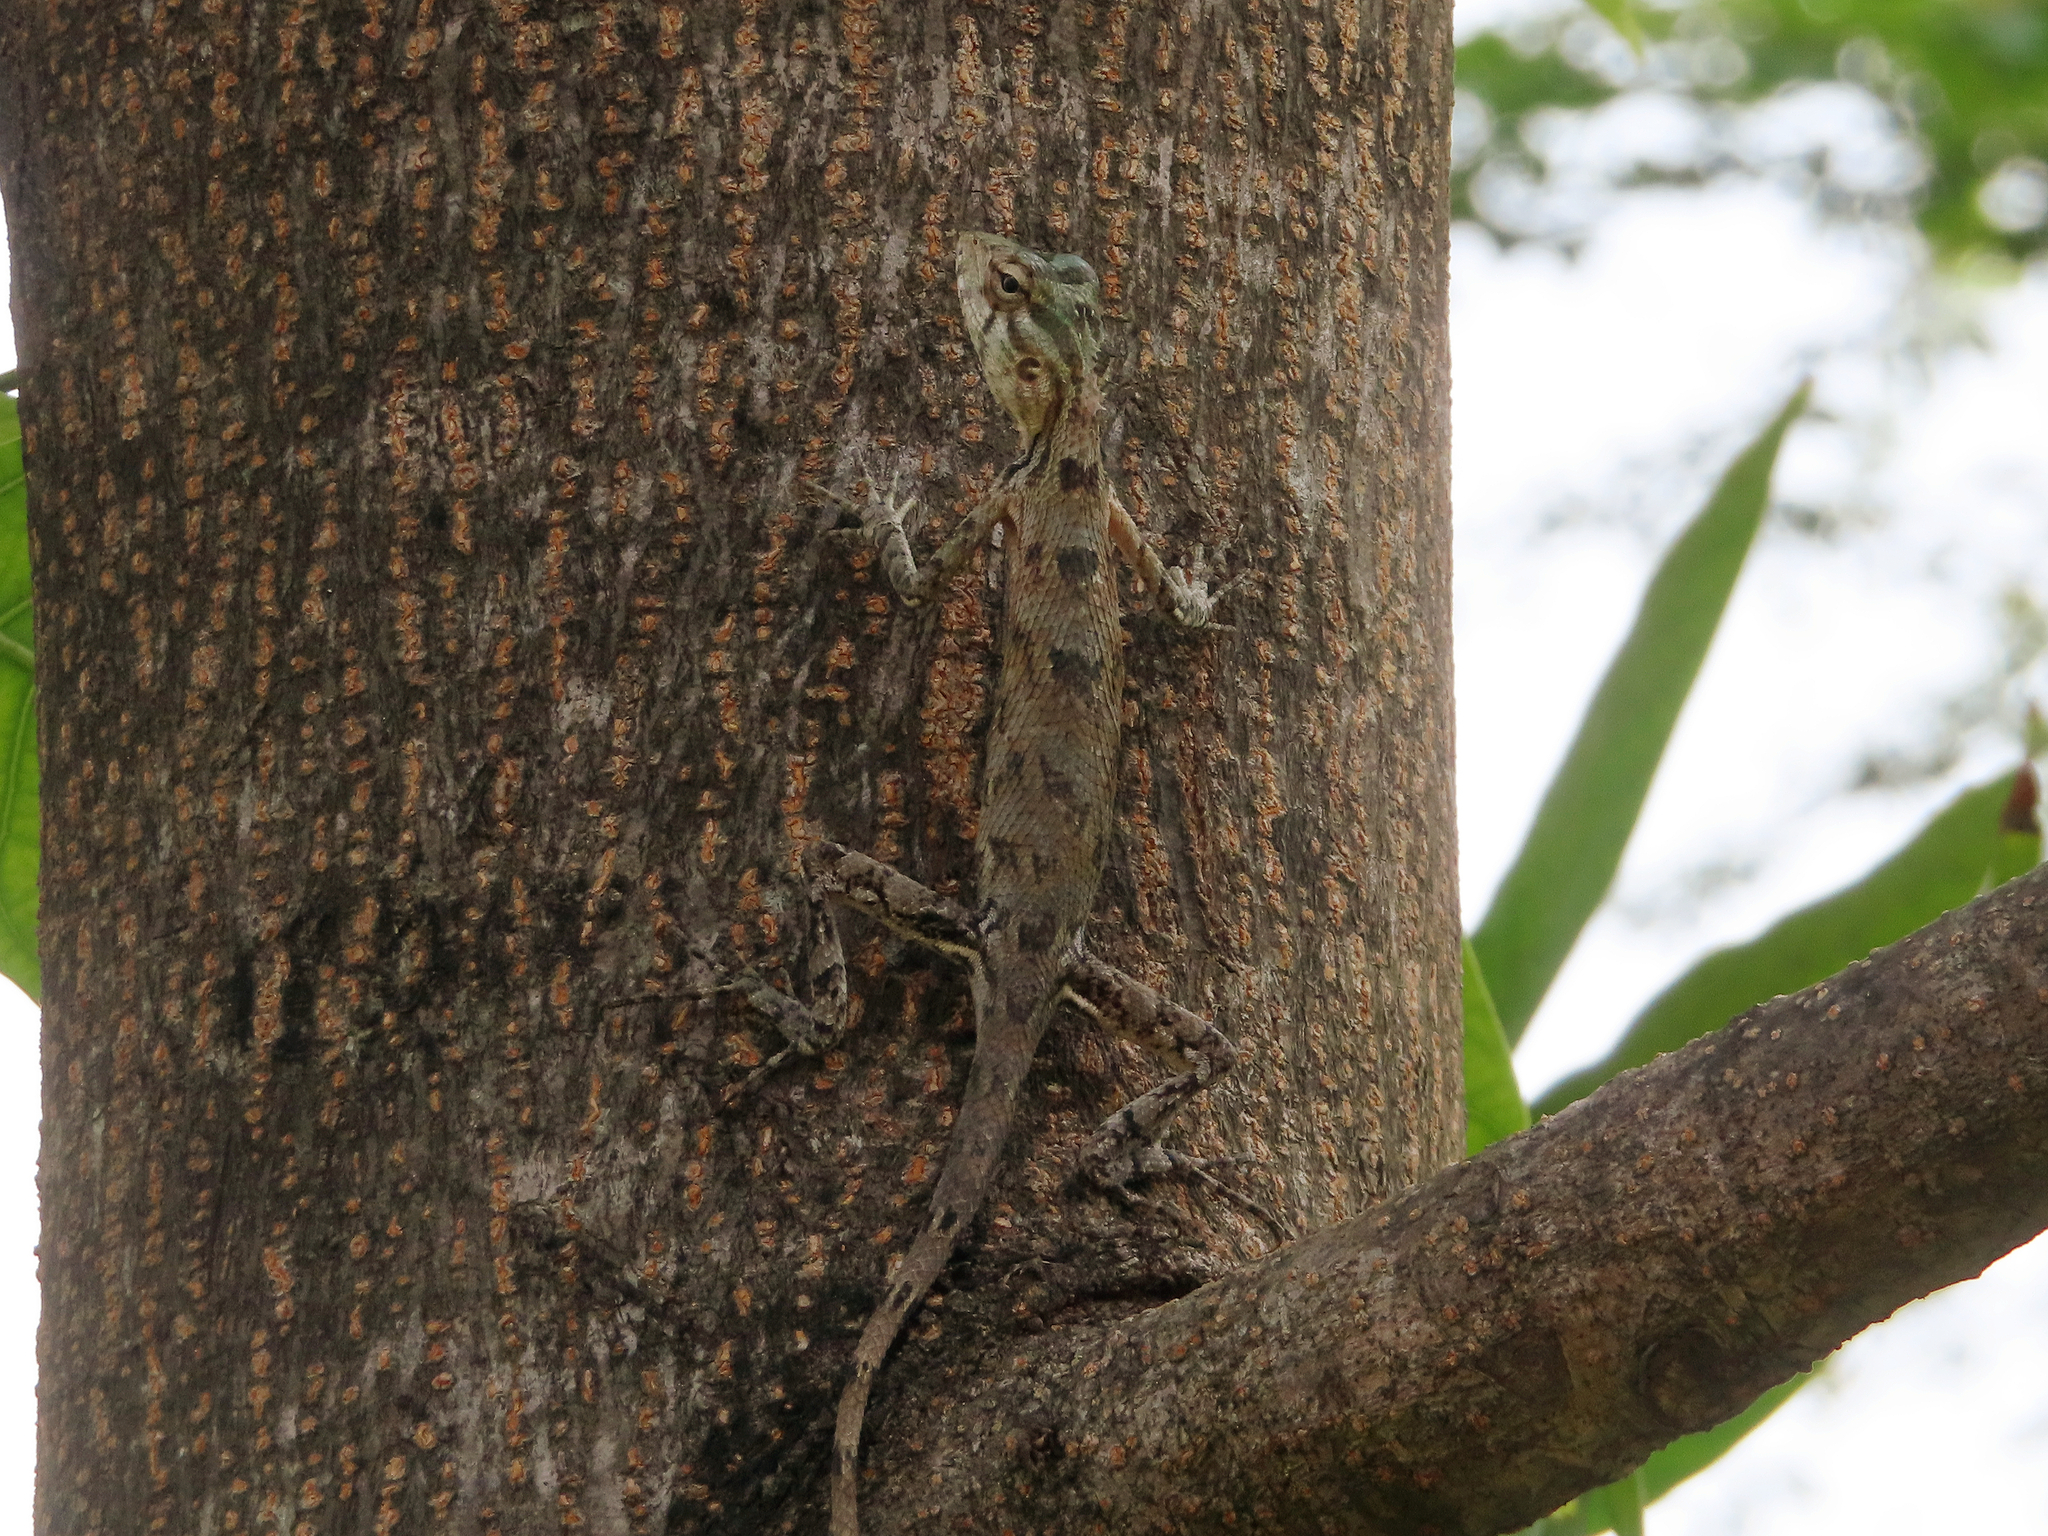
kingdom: Animalia
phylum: Chordata
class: Squamata
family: Agamidae
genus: Calotes
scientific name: Calotes versicolor
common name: Oriental garden lizard
